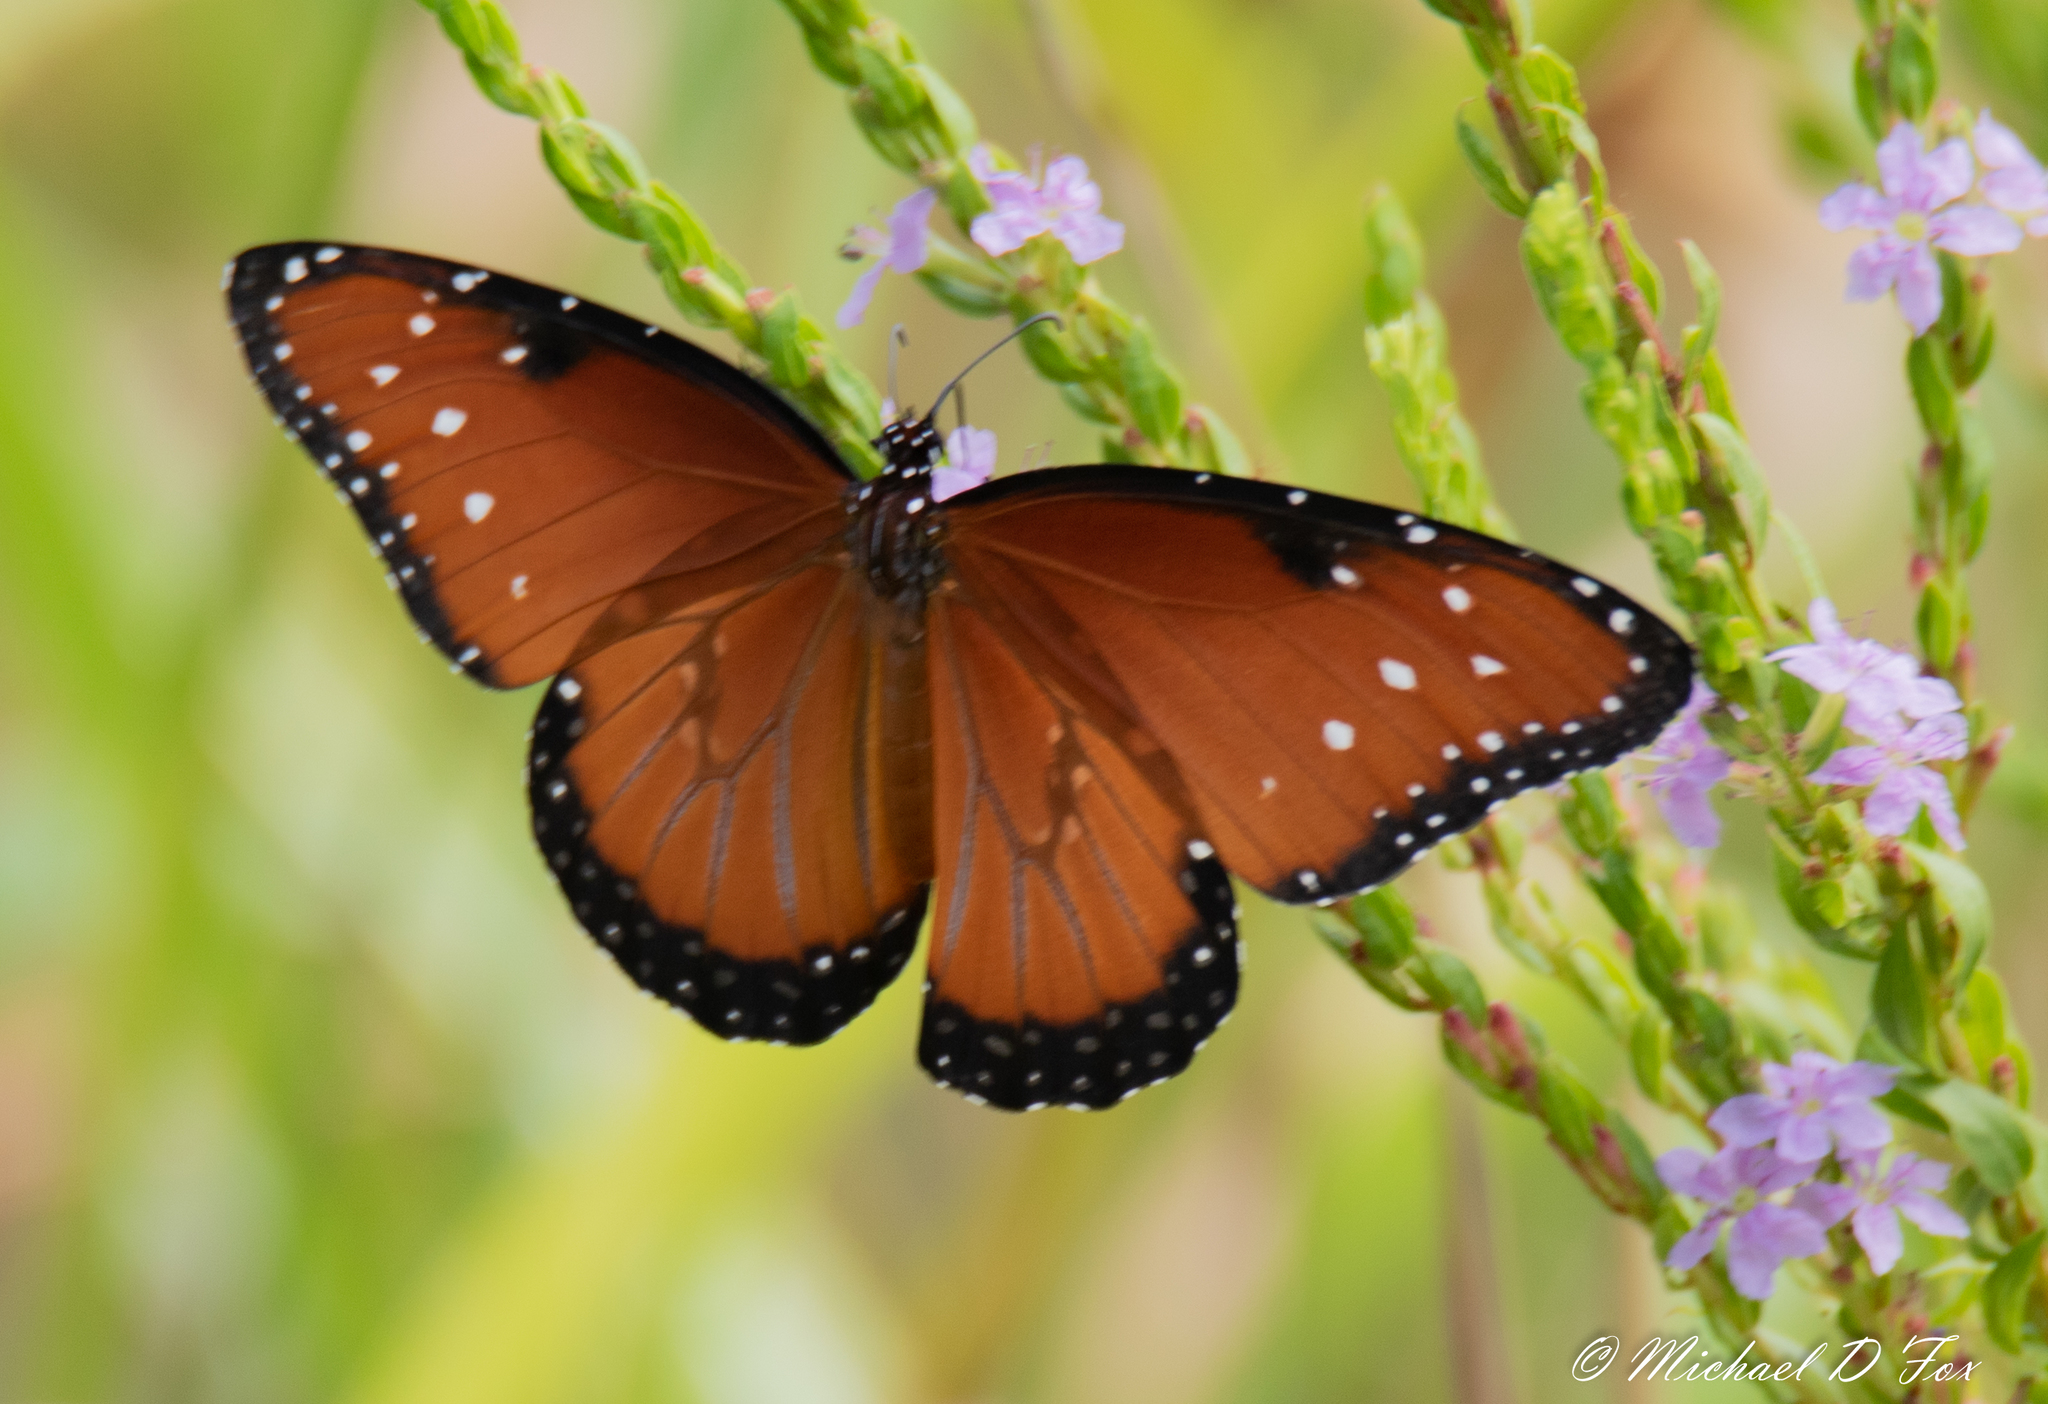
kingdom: Animalia
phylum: Arthropoda
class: Insecta
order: Lepidoptera
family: Nymphalidae
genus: Danaus
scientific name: Danaus gilippus
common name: Queen
